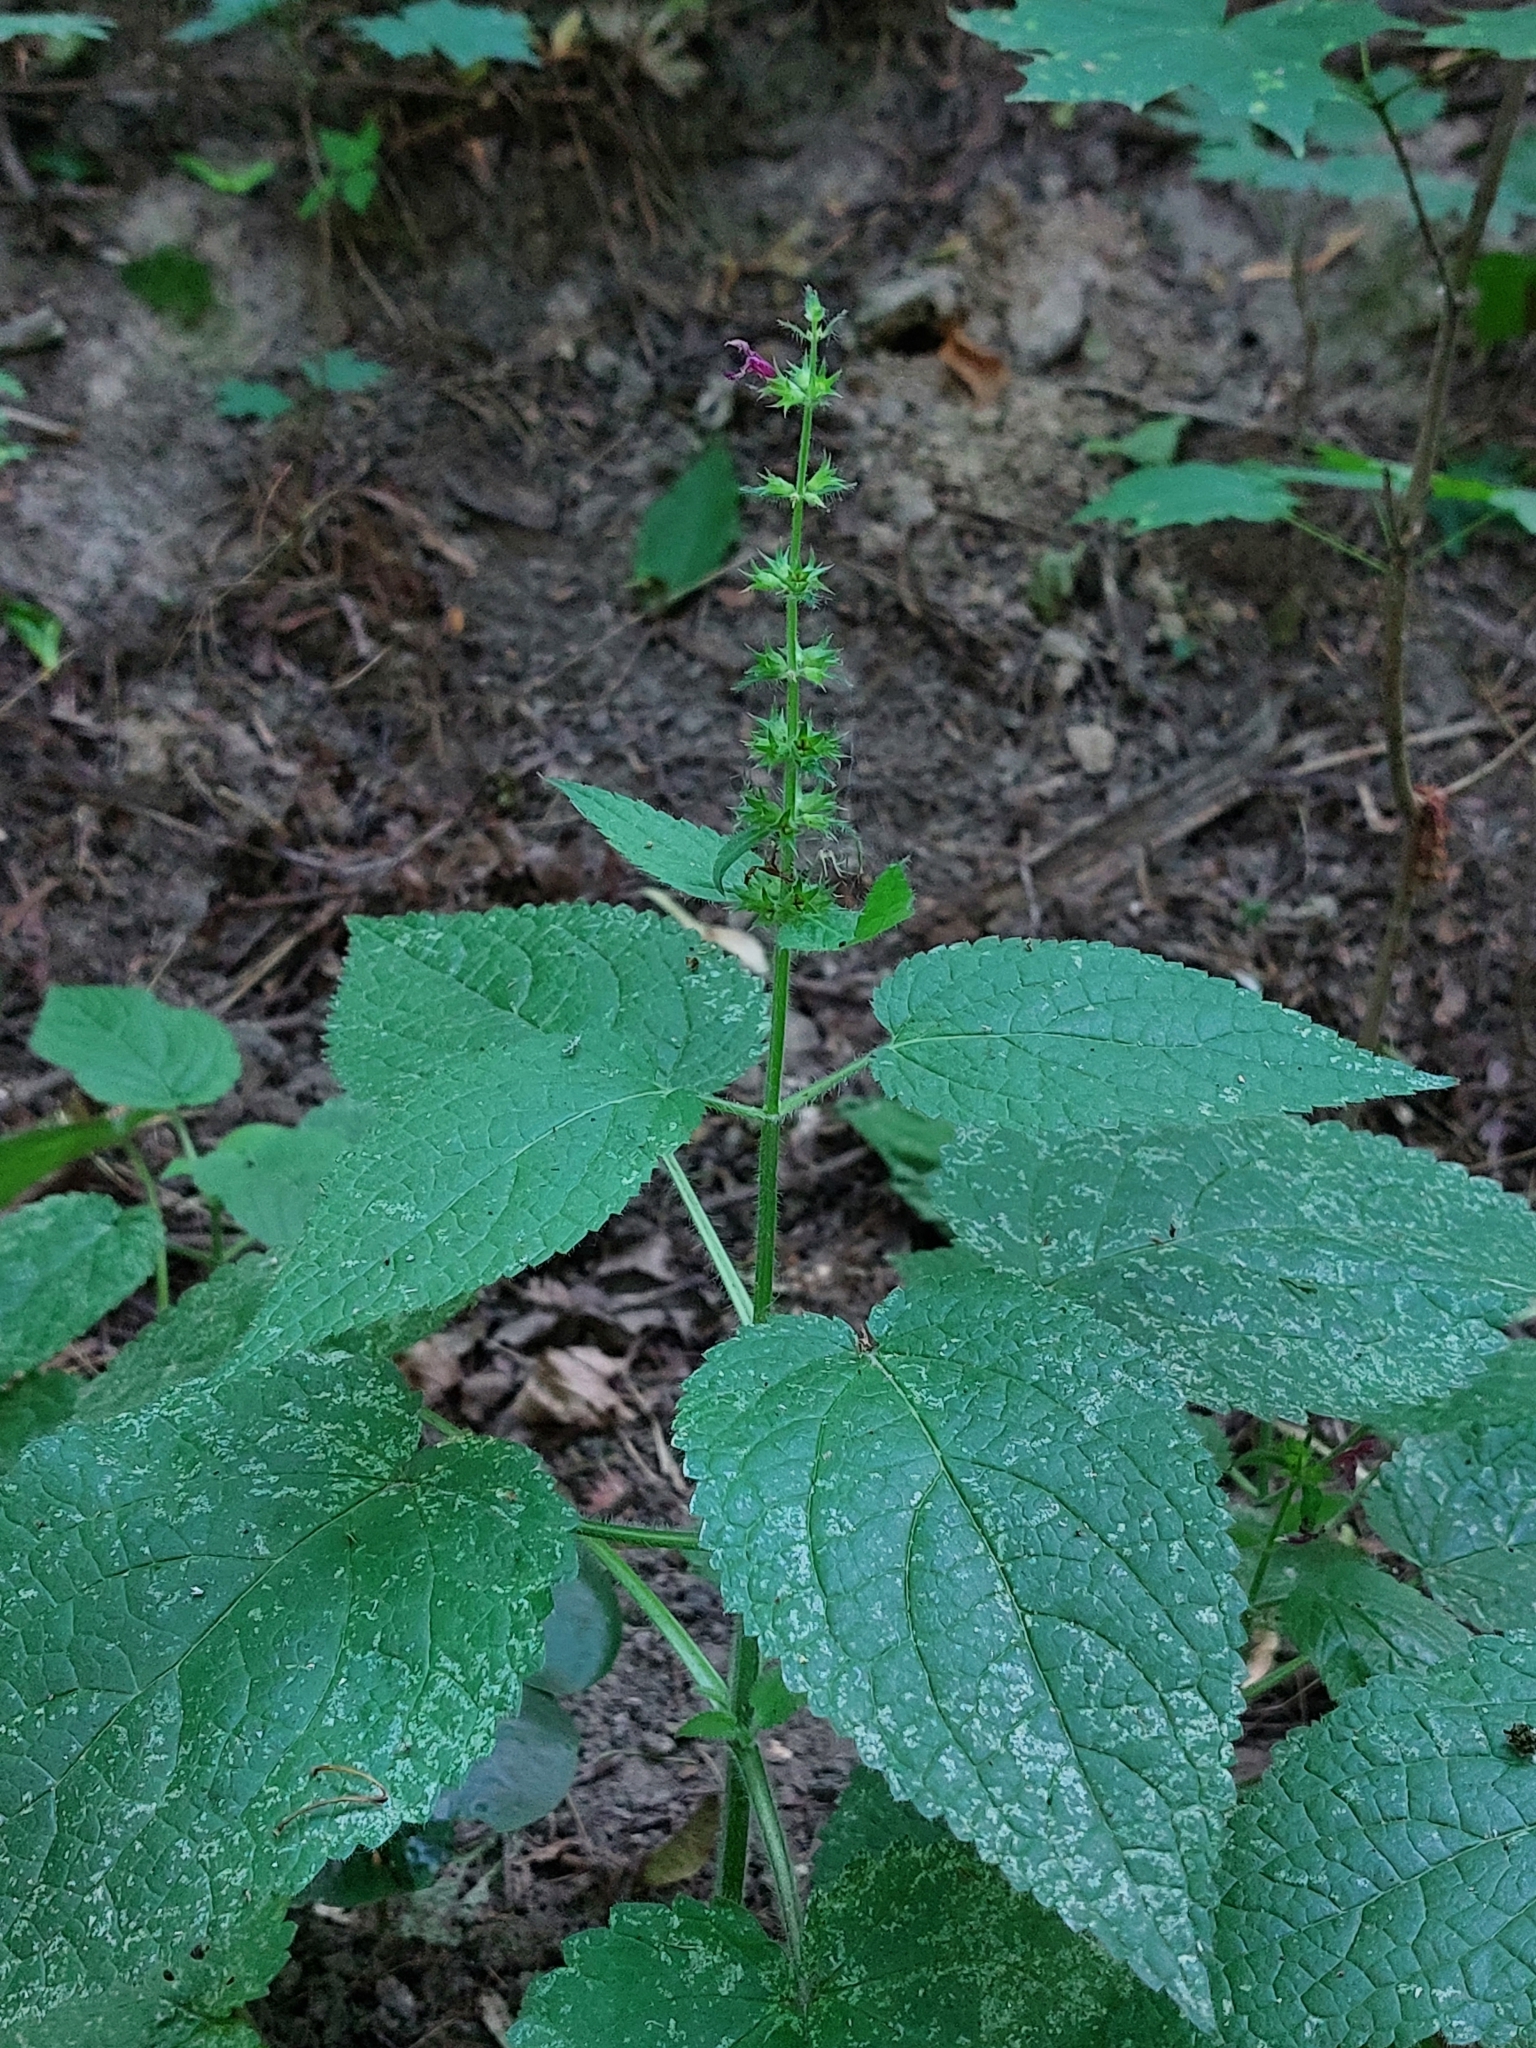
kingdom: Plantae
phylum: Tracheophyta
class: Magnoliopsida
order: Lamiales
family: Lamiaceae
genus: Stachys
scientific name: Stachys sylvatica
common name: Hedge woundwort
